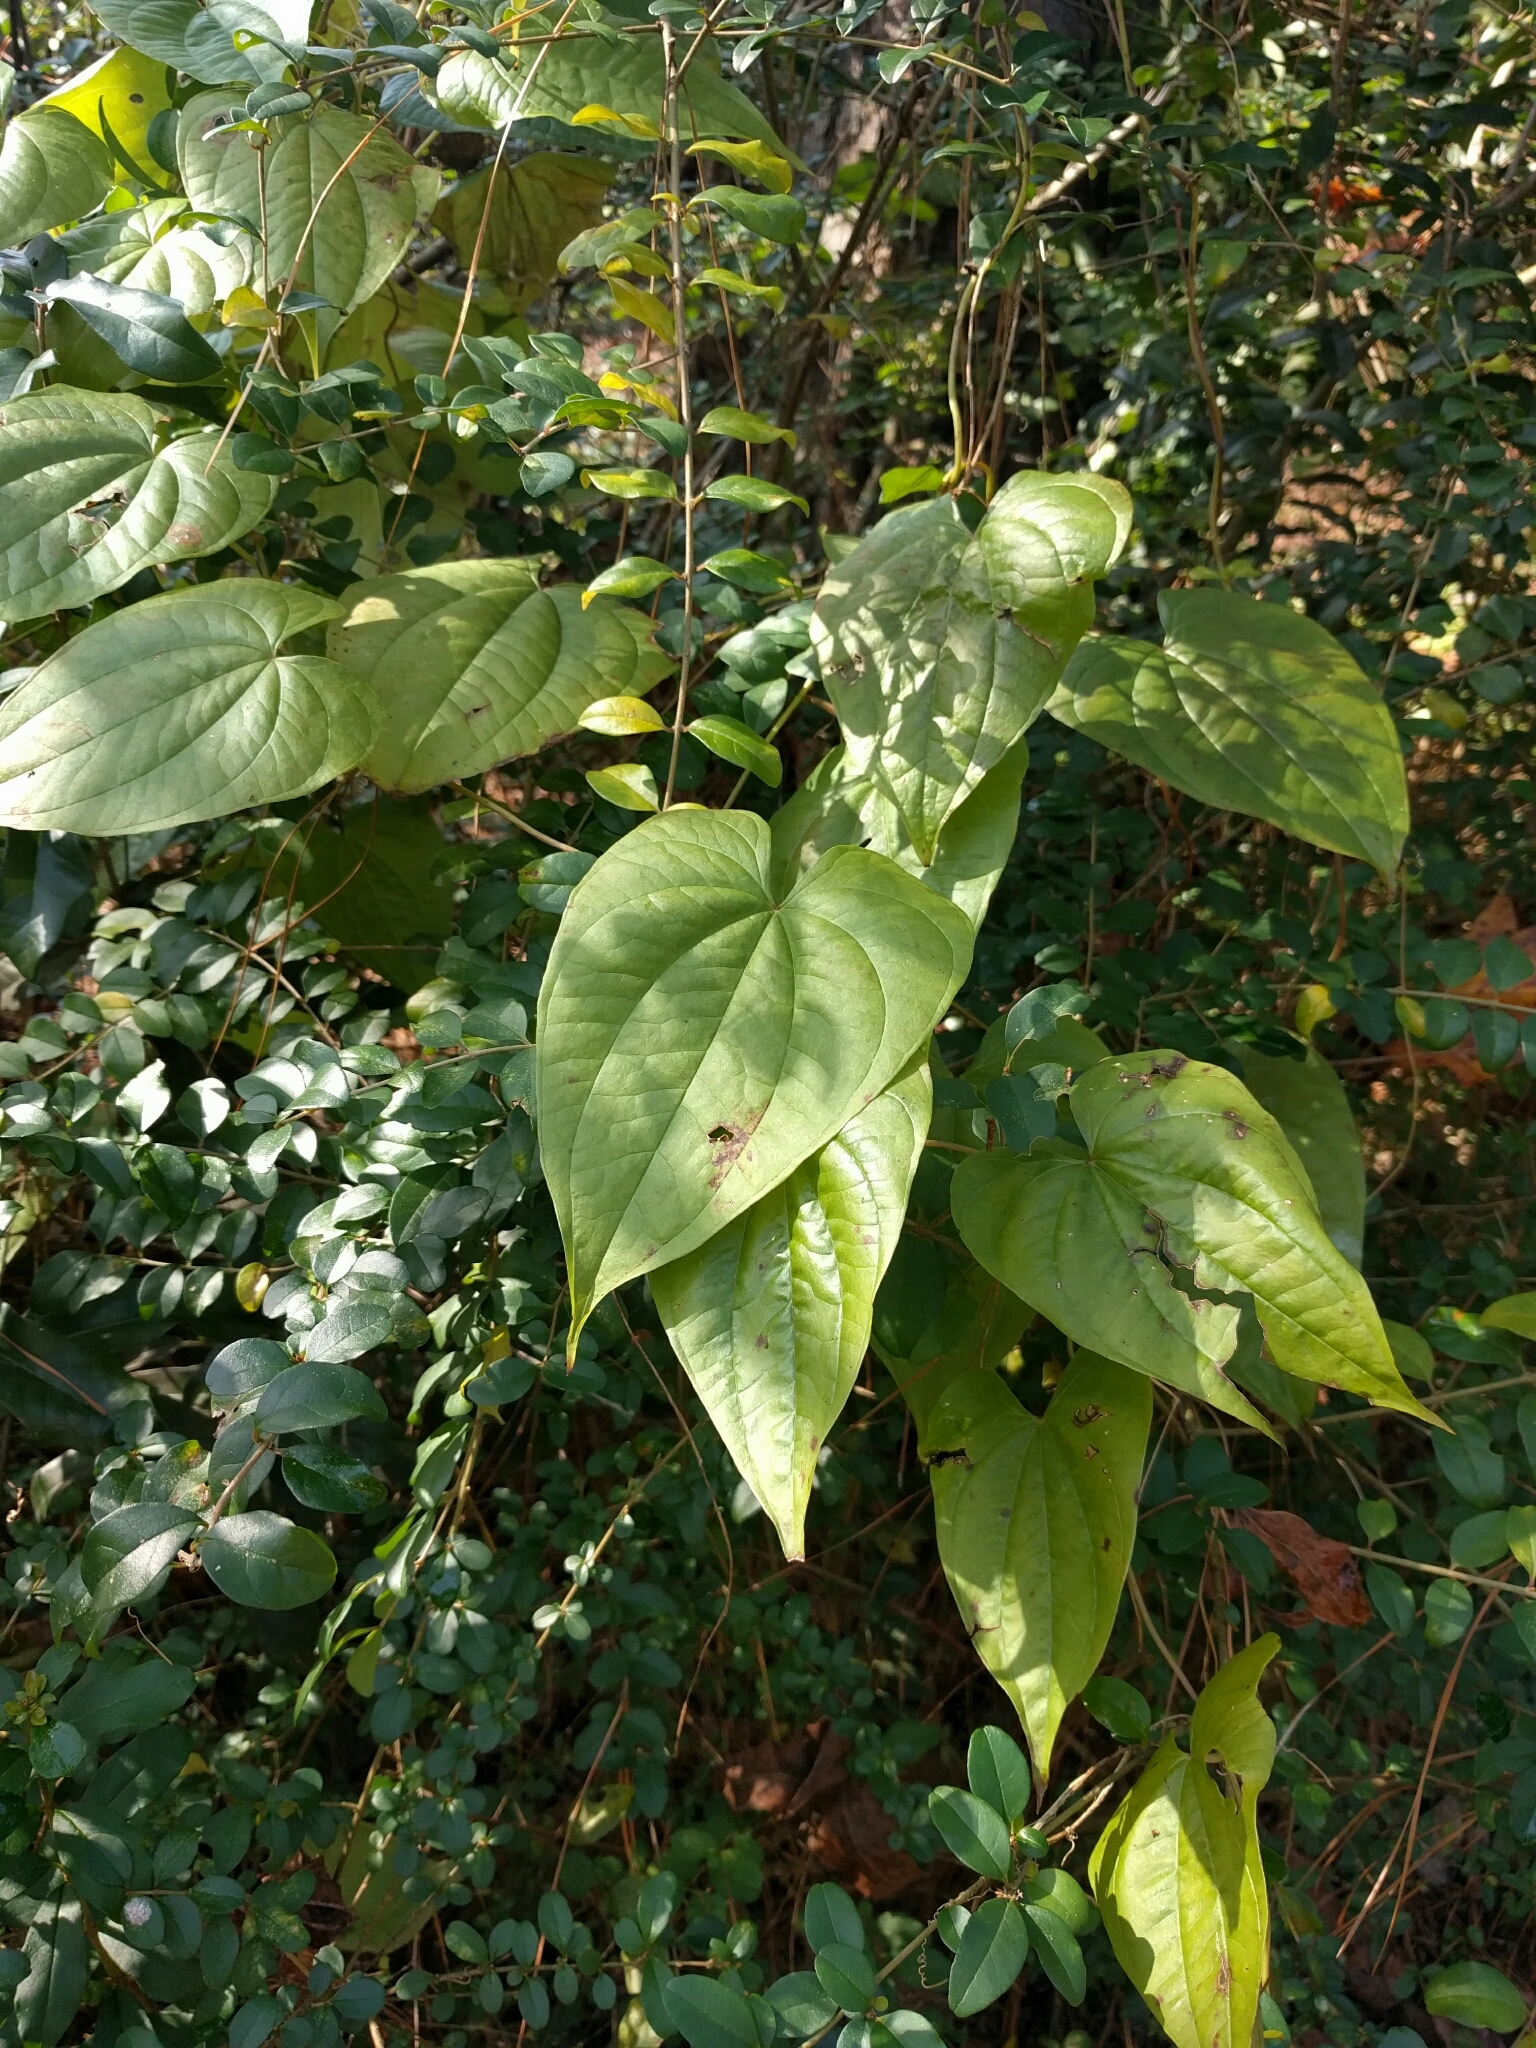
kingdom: Plantae
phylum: Tracheophyta
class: Liliopsida
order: Dioscoreales
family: Dioscoreaceae
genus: Dioscorea
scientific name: Dioscorea bulbifera
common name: Air yam
